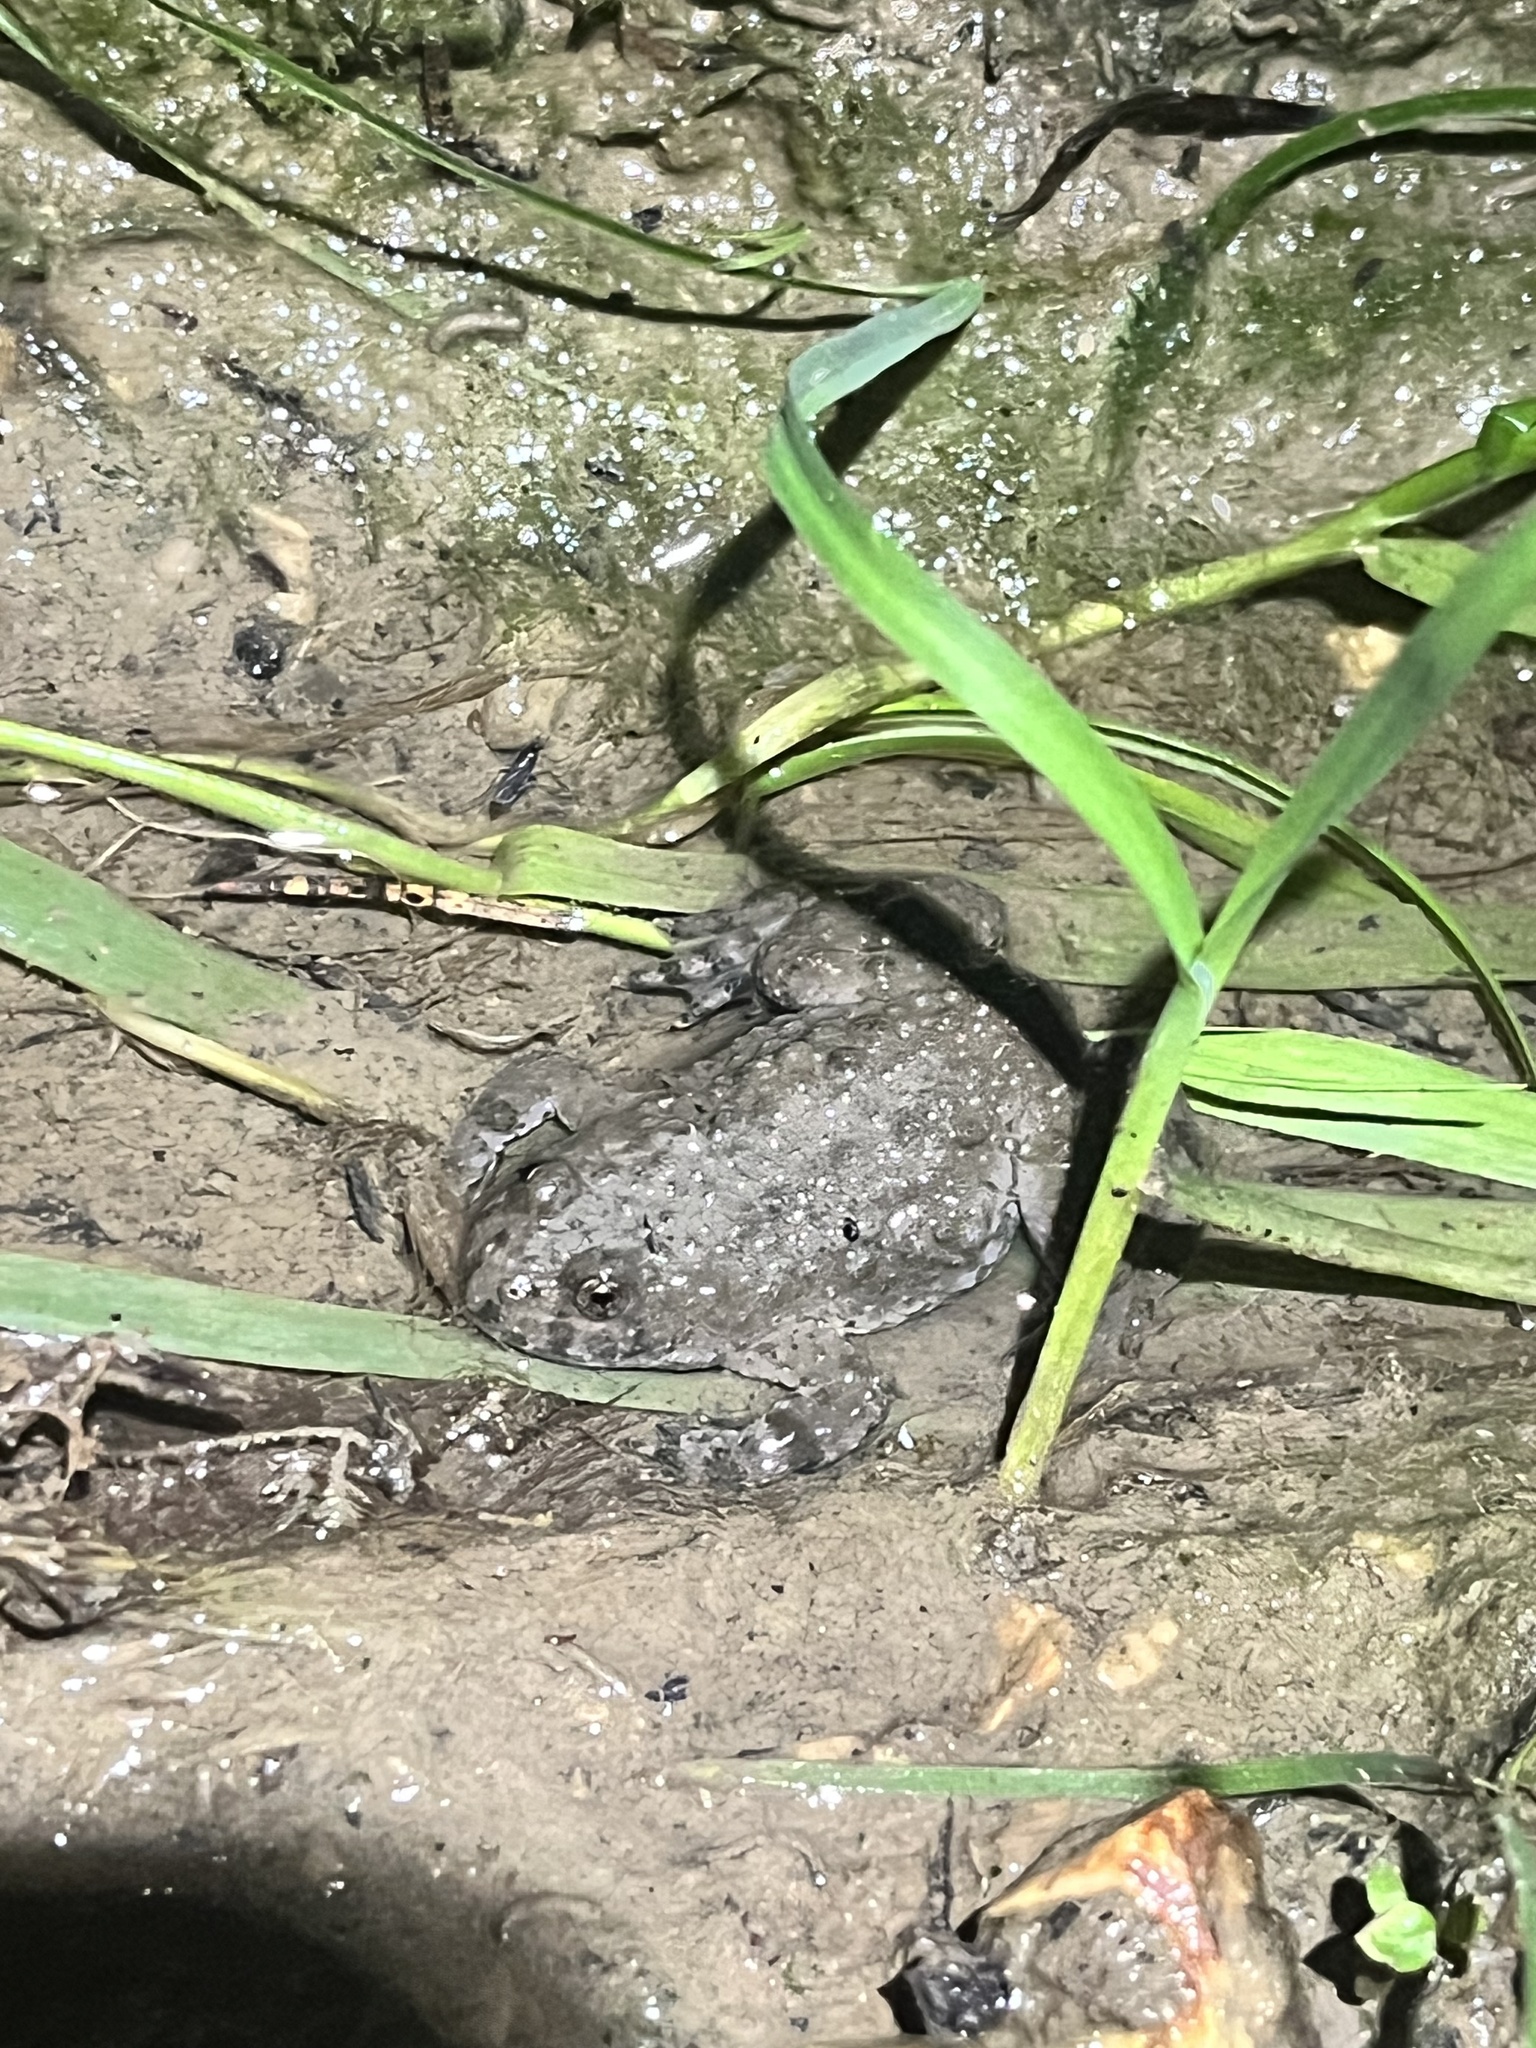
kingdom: Animalia
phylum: Chordata
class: Amphibia
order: Anura
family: Bombinatoridae
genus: Bombina
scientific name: Bombina variegata
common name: Yellow-bellied toad
